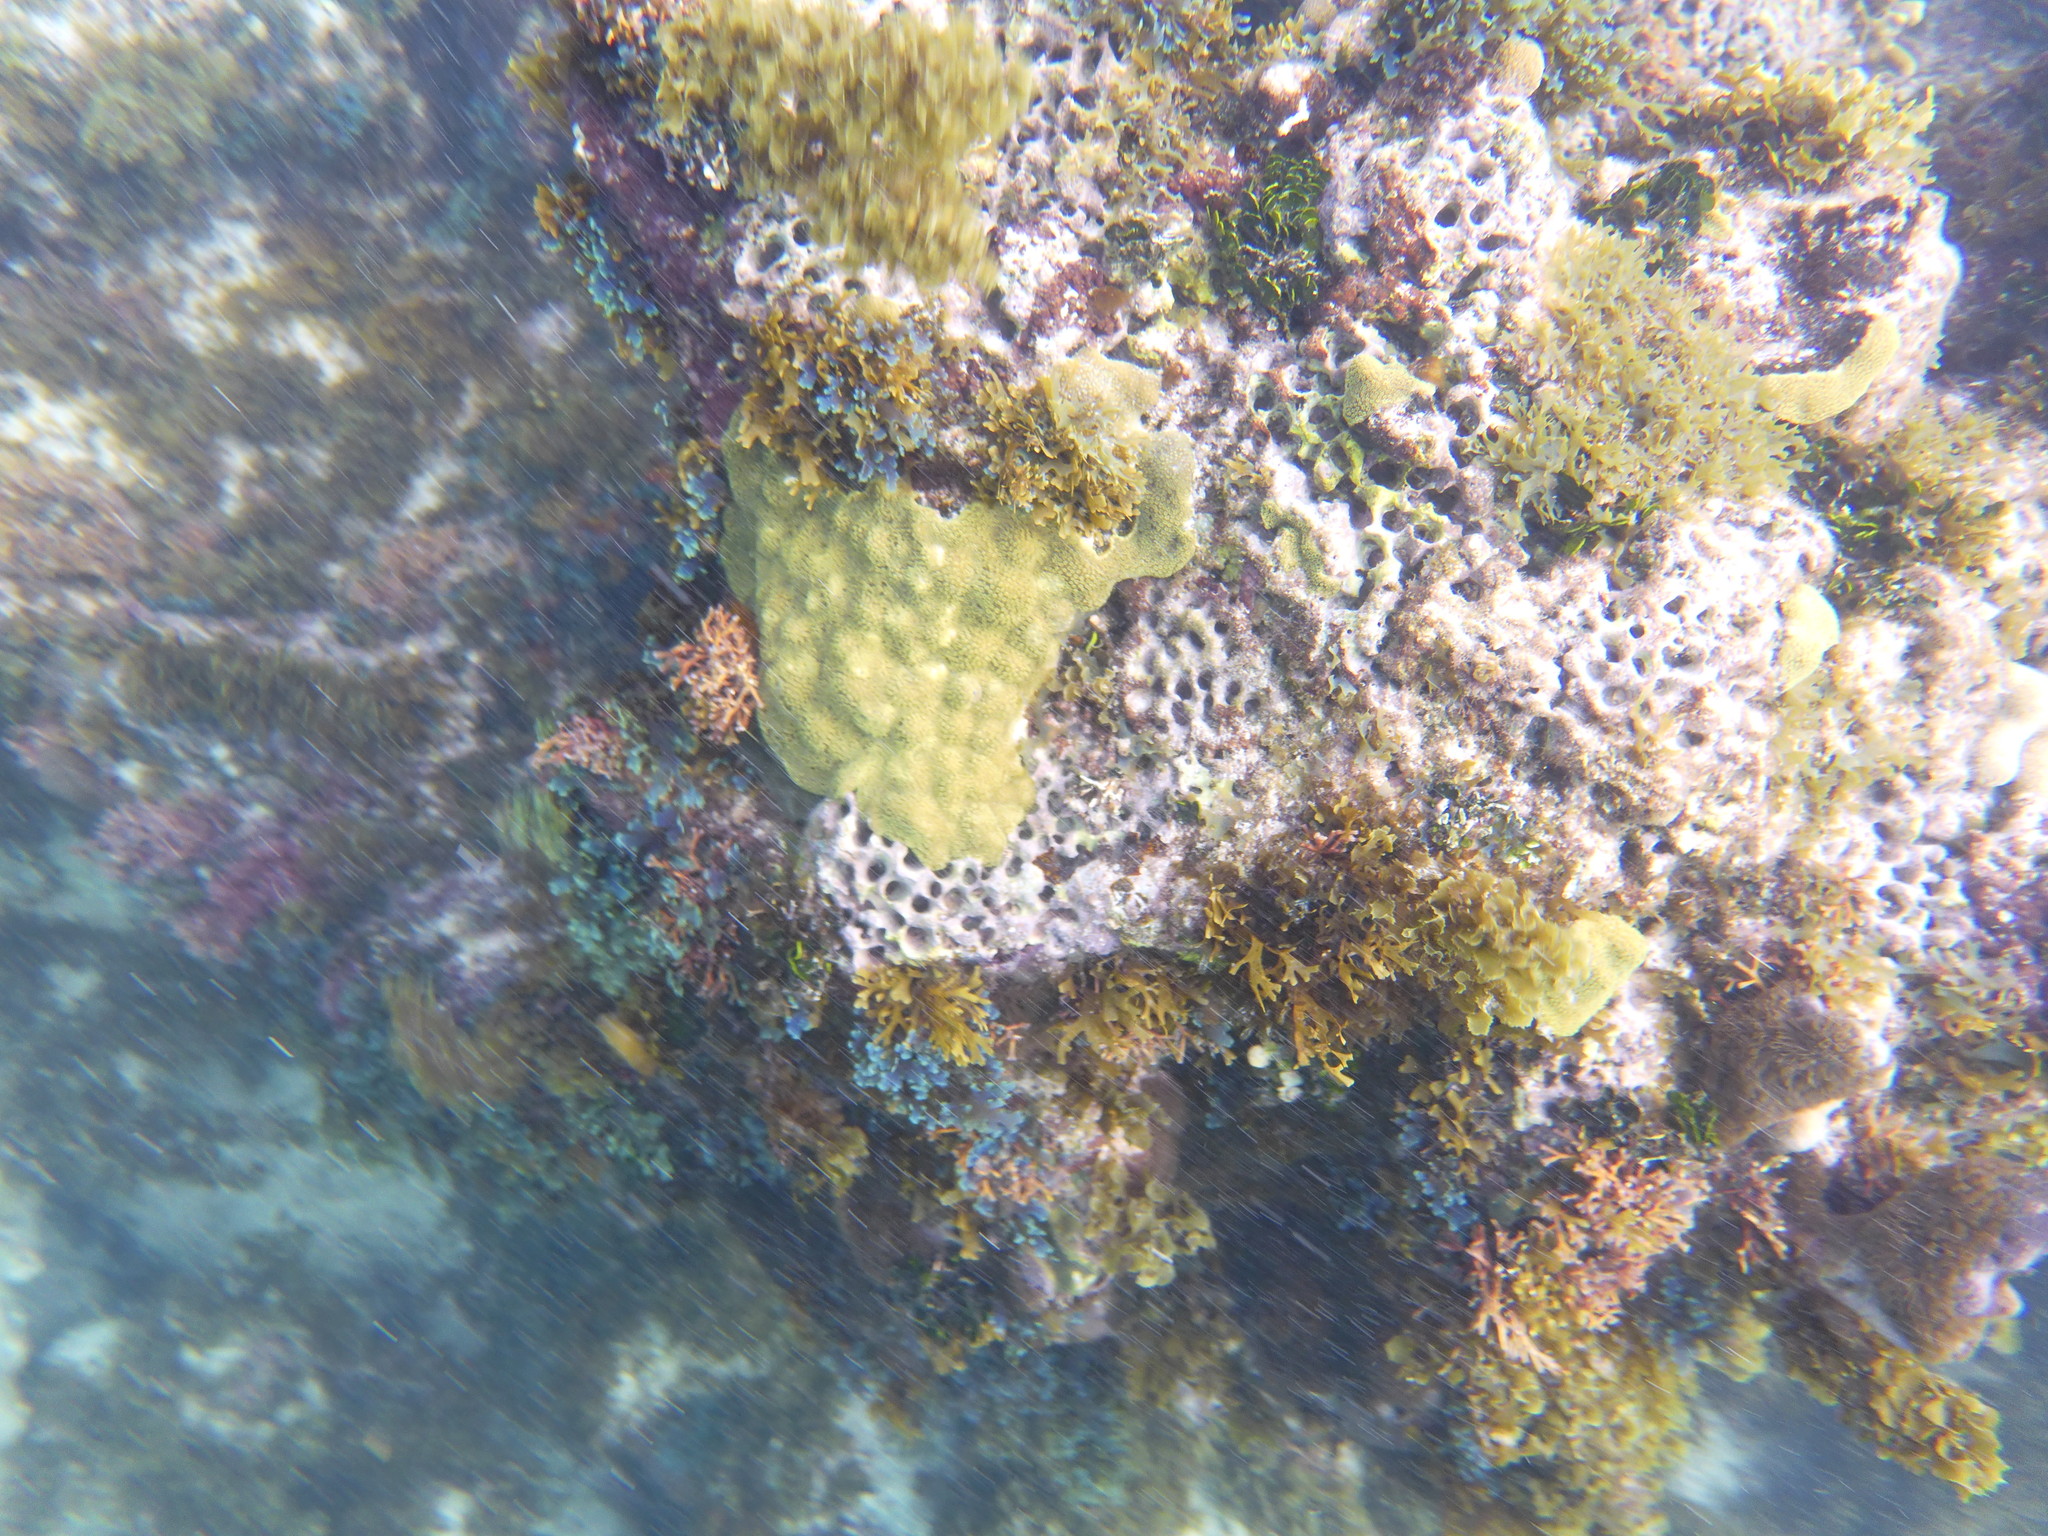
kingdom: Animalia
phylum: Cnidaria
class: Anthozoa
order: Scleractinia
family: Poritidae
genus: Porites
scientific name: Porites astreoides
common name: Mustard hill coral
